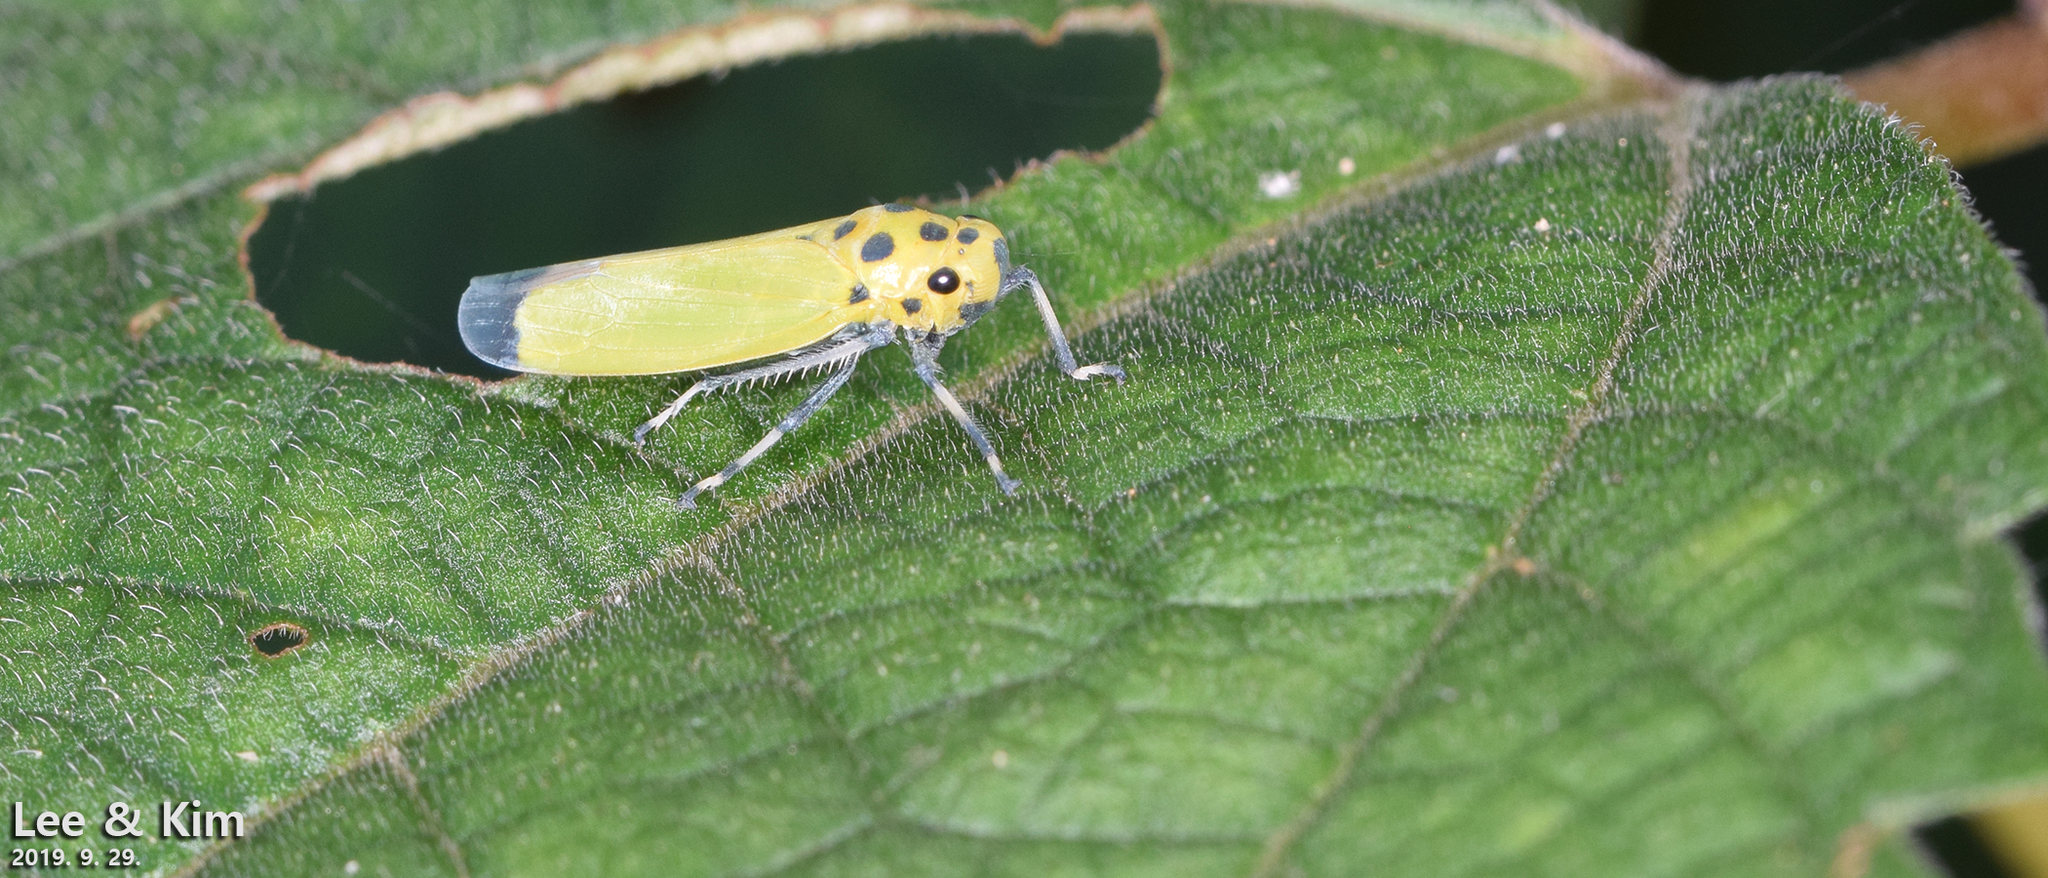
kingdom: Animalia
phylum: Arthropoda
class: Insecta
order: Hemiptera
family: Cicadellidae
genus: Bothrogonia
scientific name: Bothrogonia ferruginea
